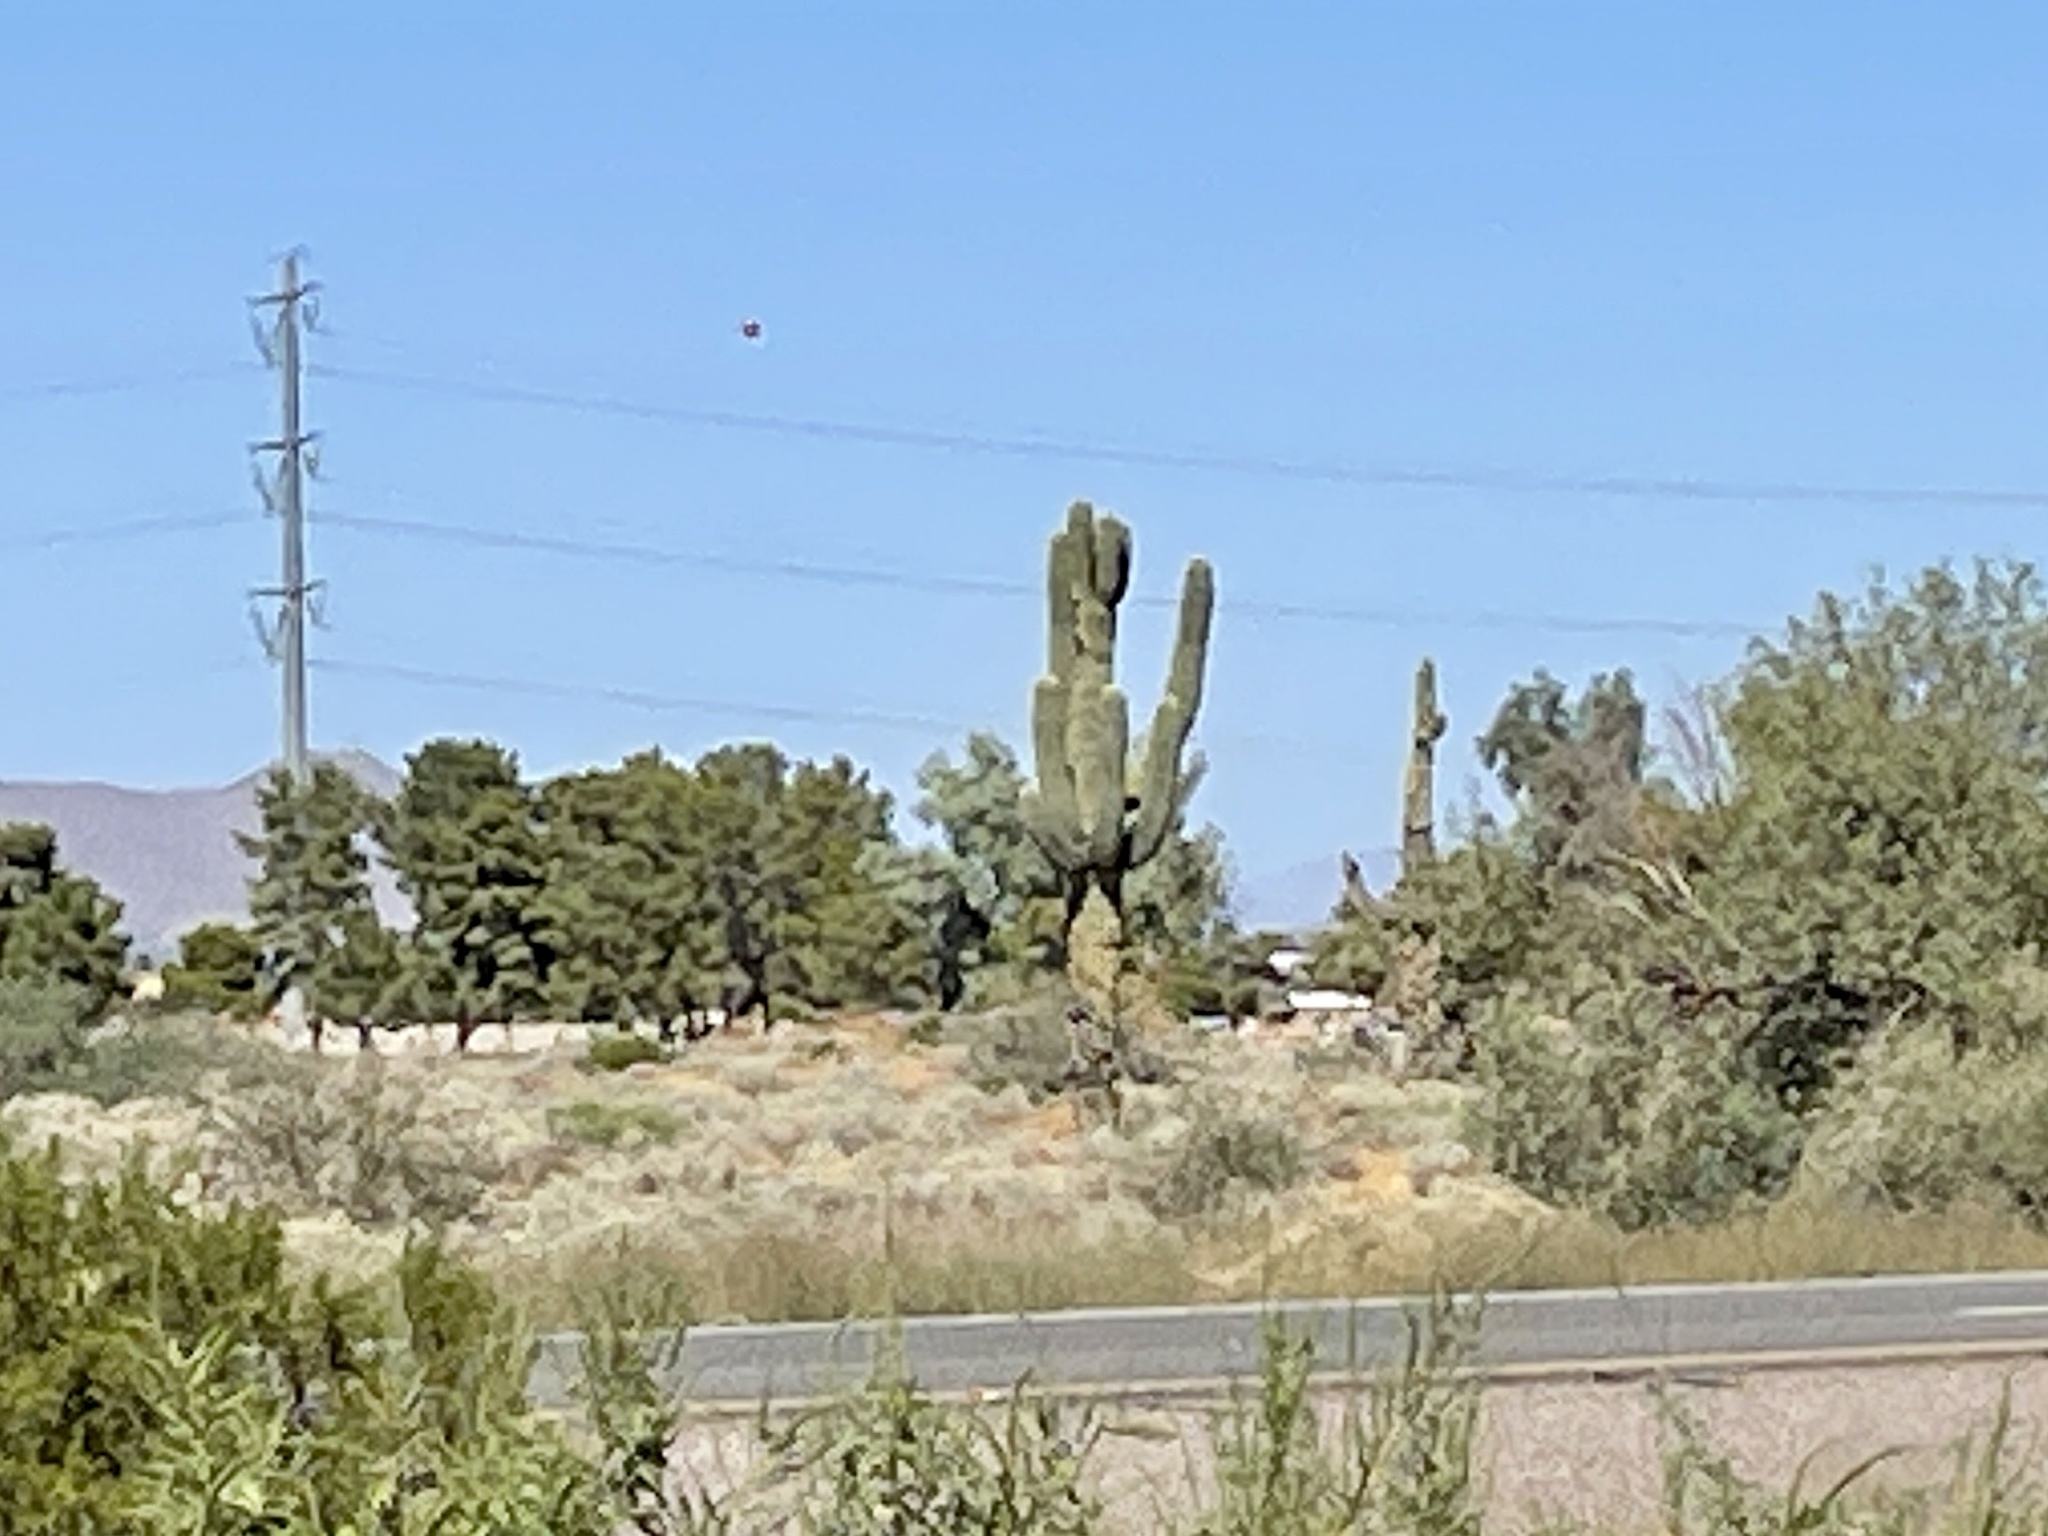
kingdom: Plantae
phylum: Tracheophyta
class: Magnoliopsida
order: Caryophyllales
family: Cactaceae
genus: Carnegiea
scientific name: Carnegiea gigantea
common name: Saguaro
